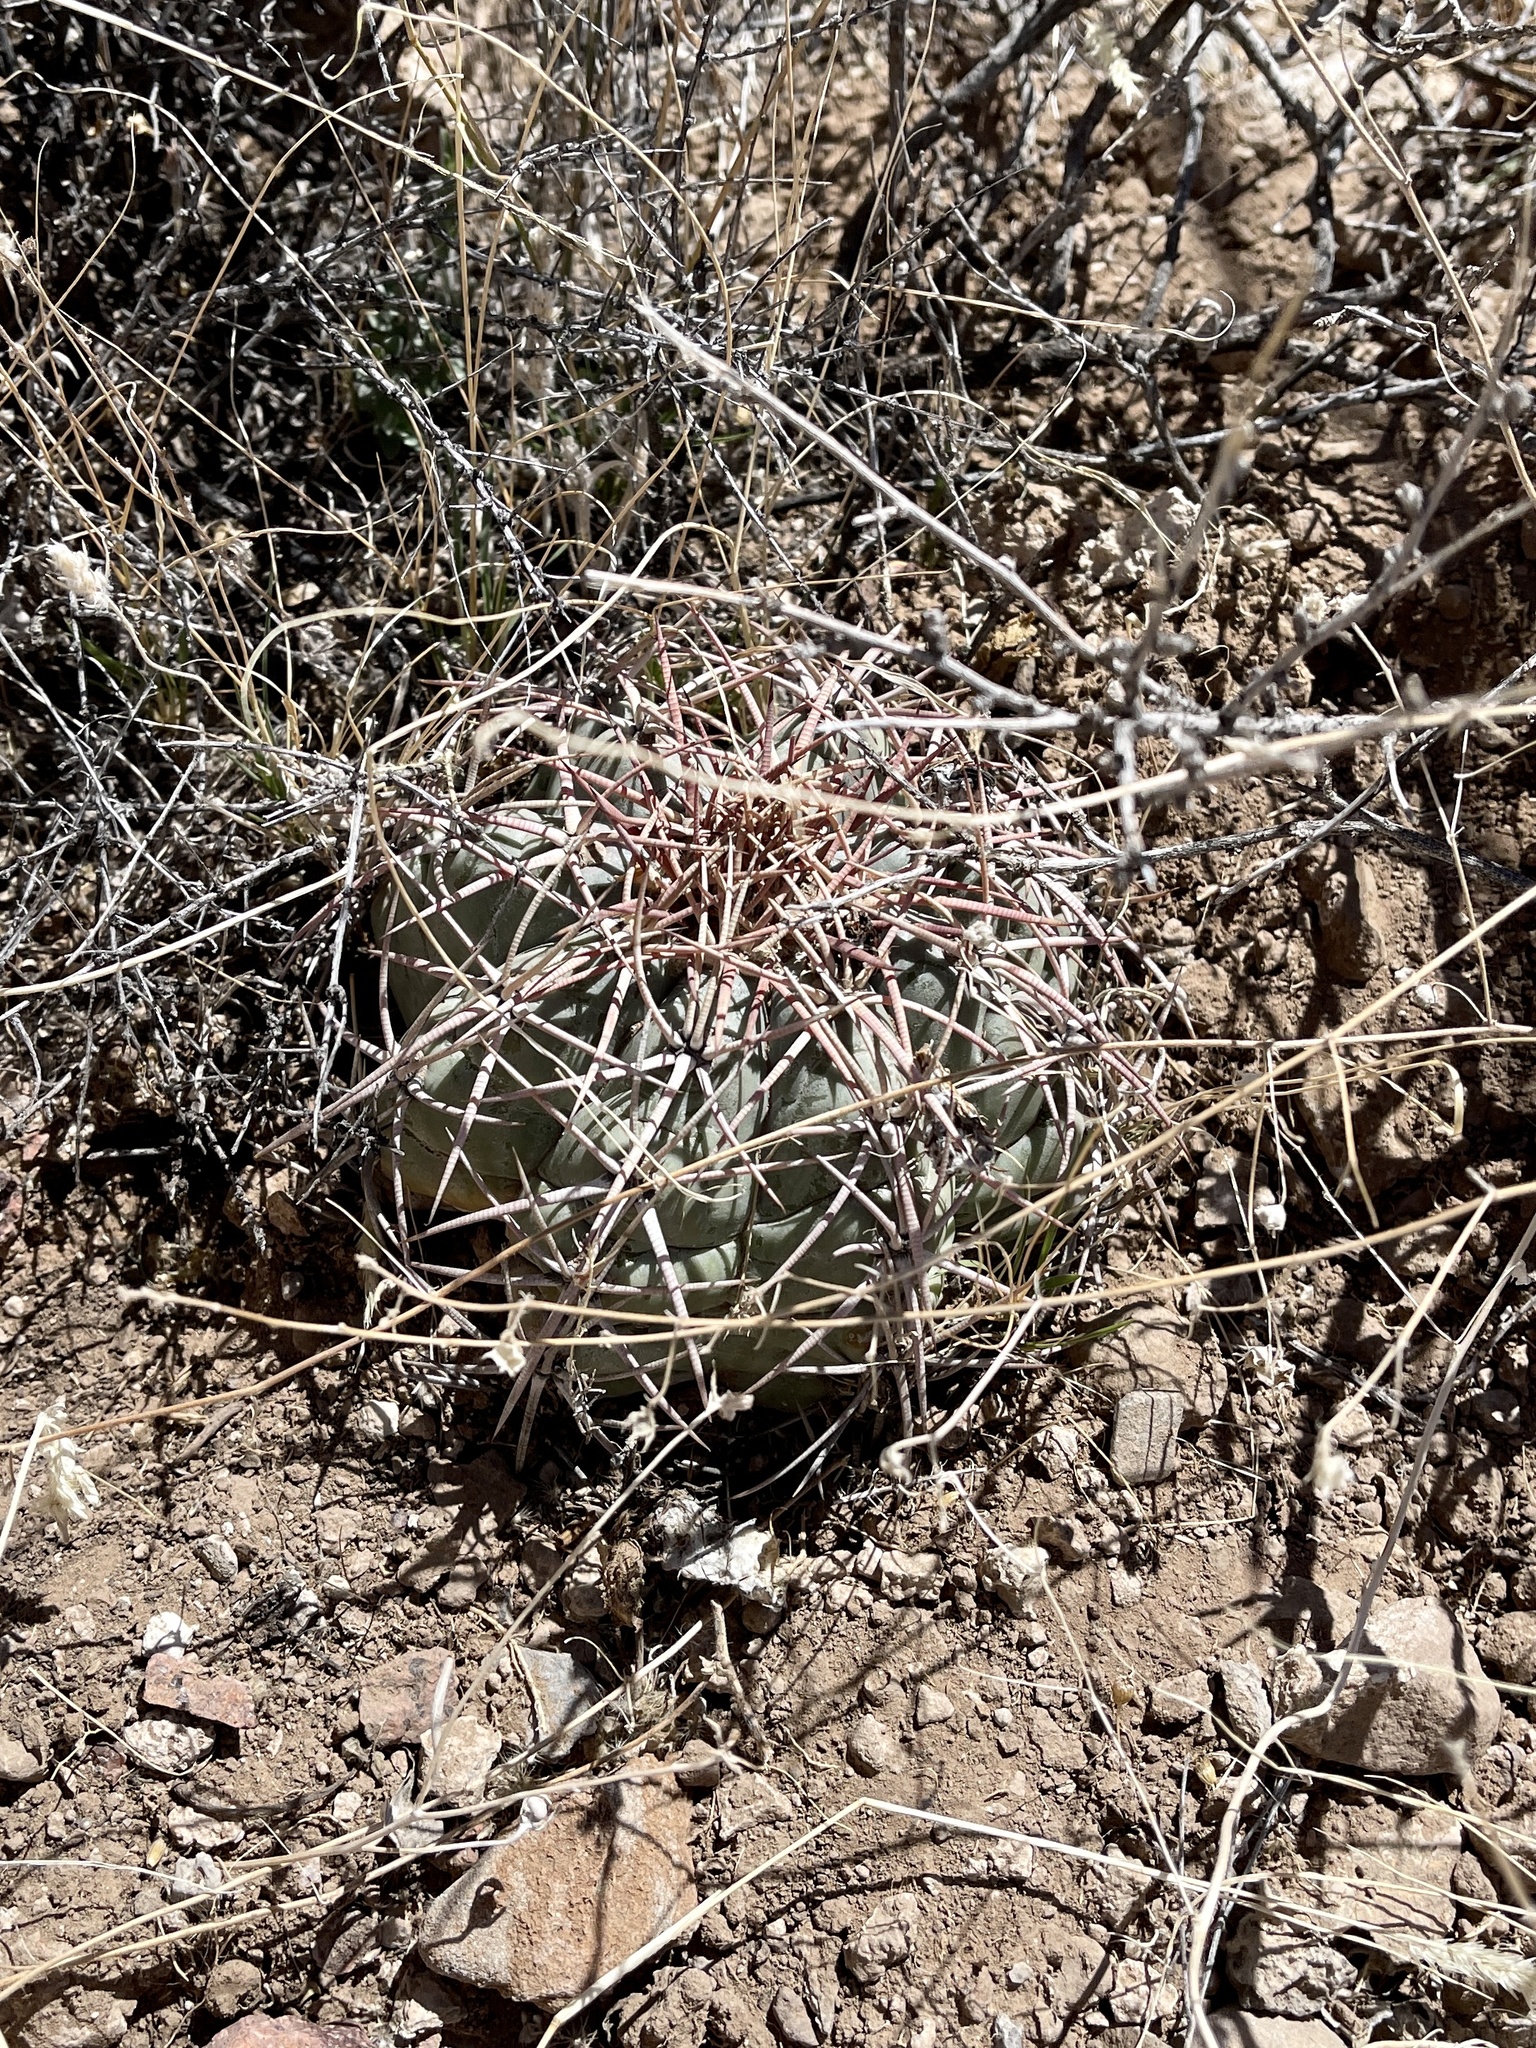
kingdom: Plantae
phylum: Tracheophyta
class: Magnoliopsida
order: Caryophyllales
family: Cactaceae
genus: Echinocactus
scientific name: Echinocactus horizonthalonius
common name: Devilshead
